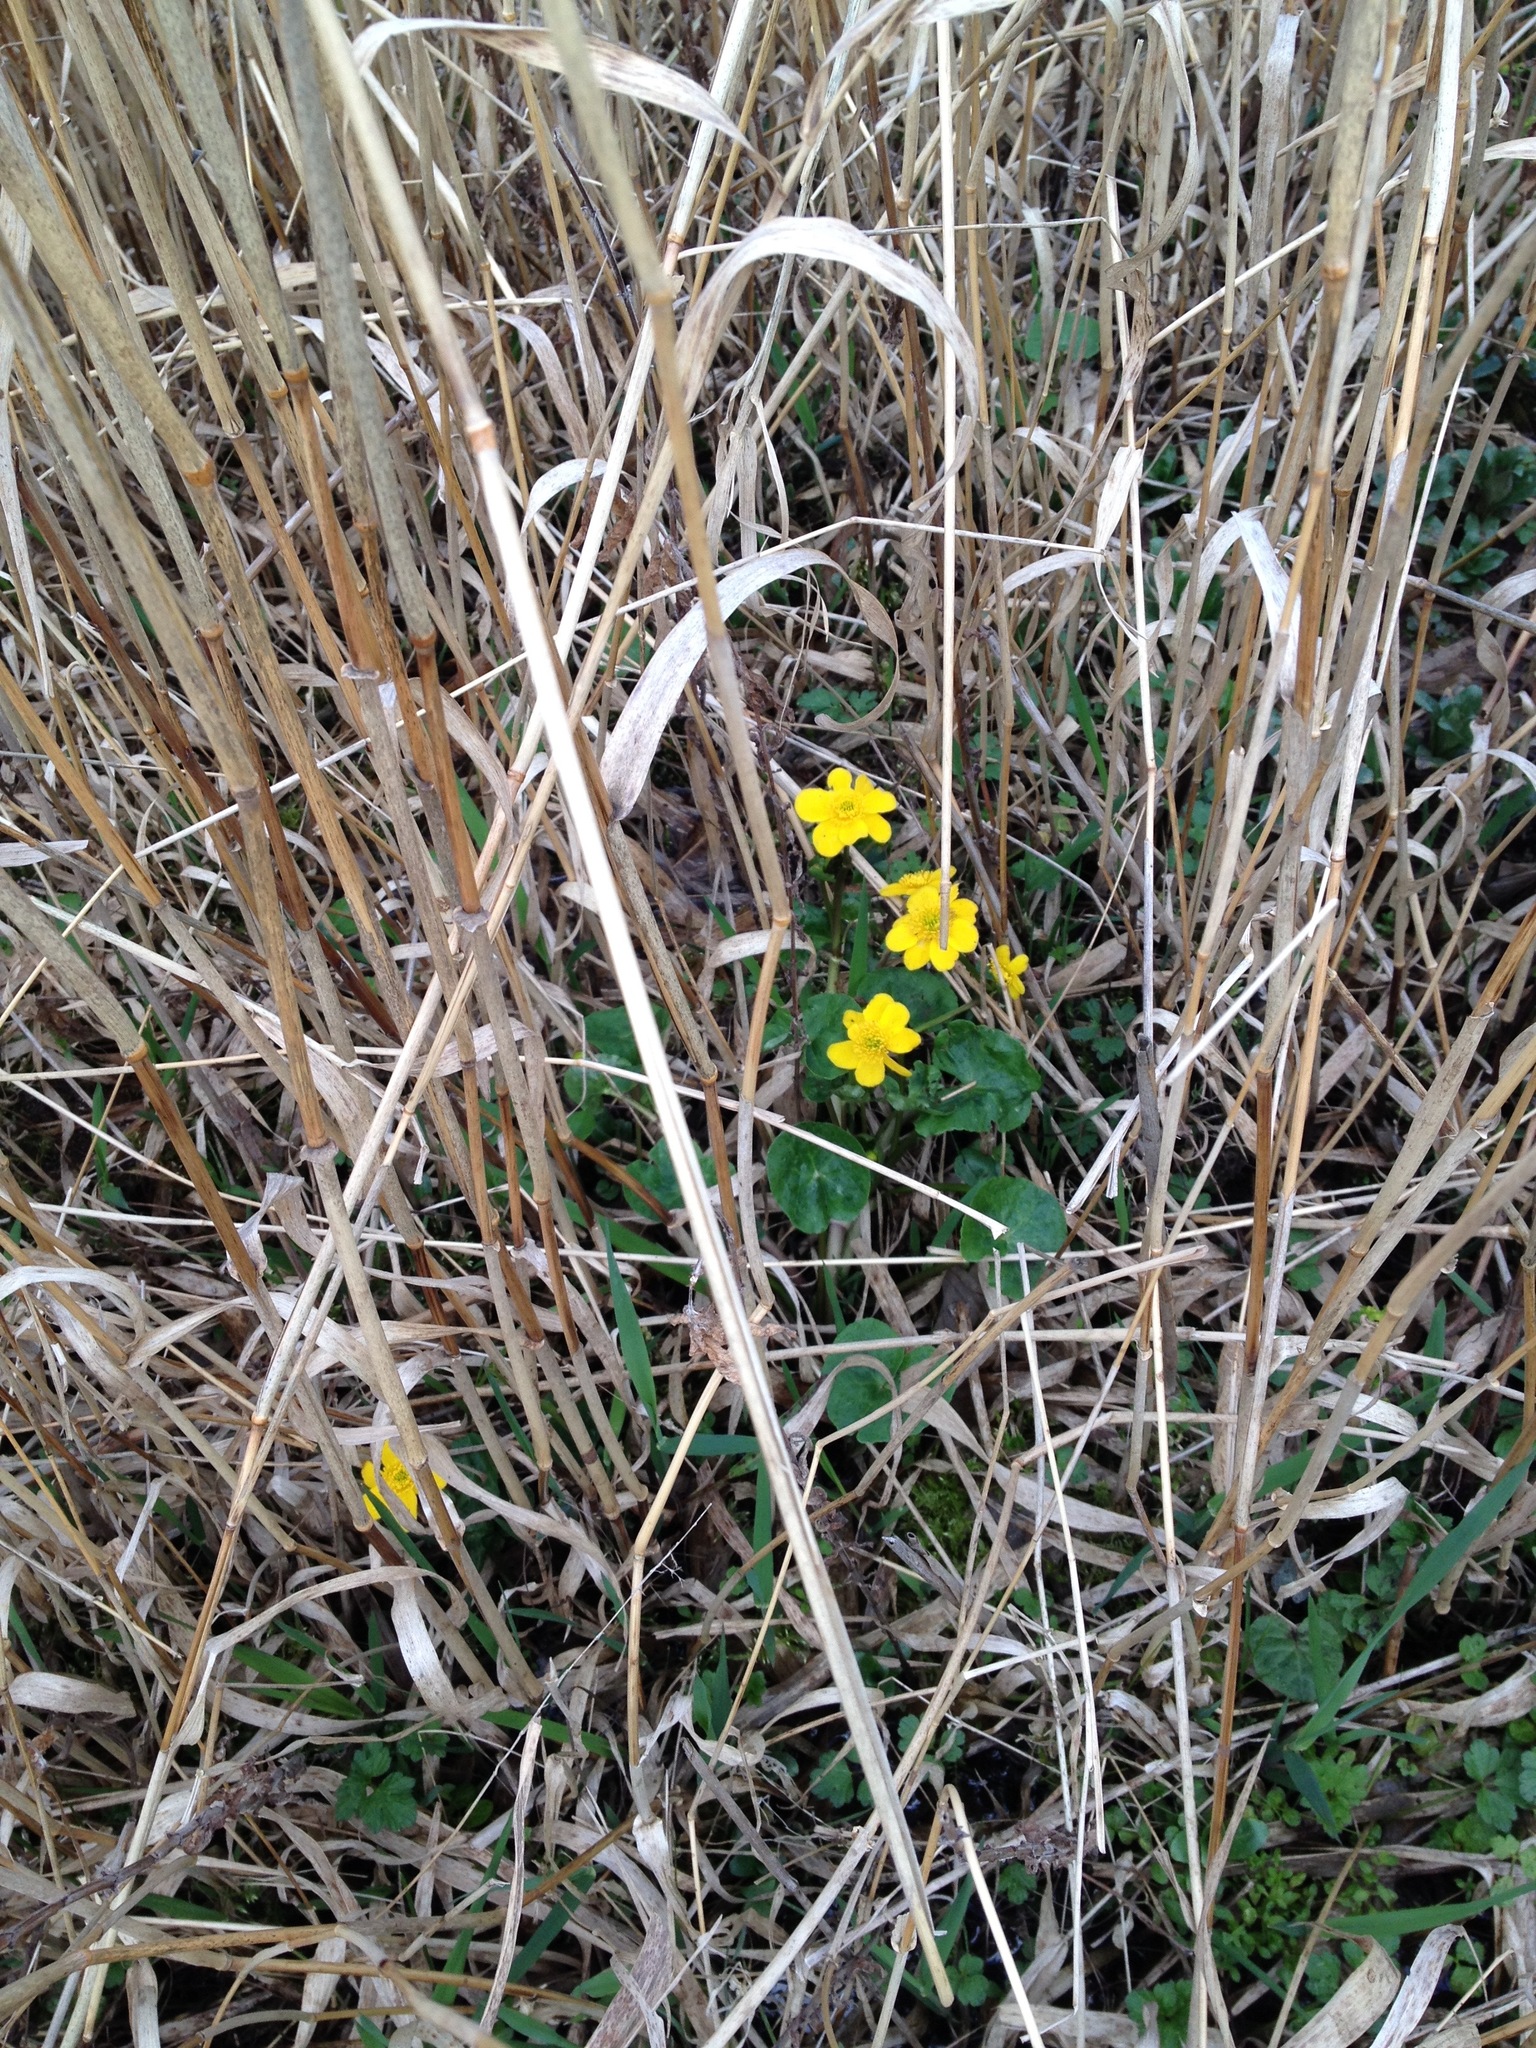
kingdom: Plantae
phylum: Tracheophyta
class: Magnoliopsida
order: Ranunculales
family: Ranunculaceae
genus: Caltha
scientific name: Caltha palustris
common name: Marsh marigold
